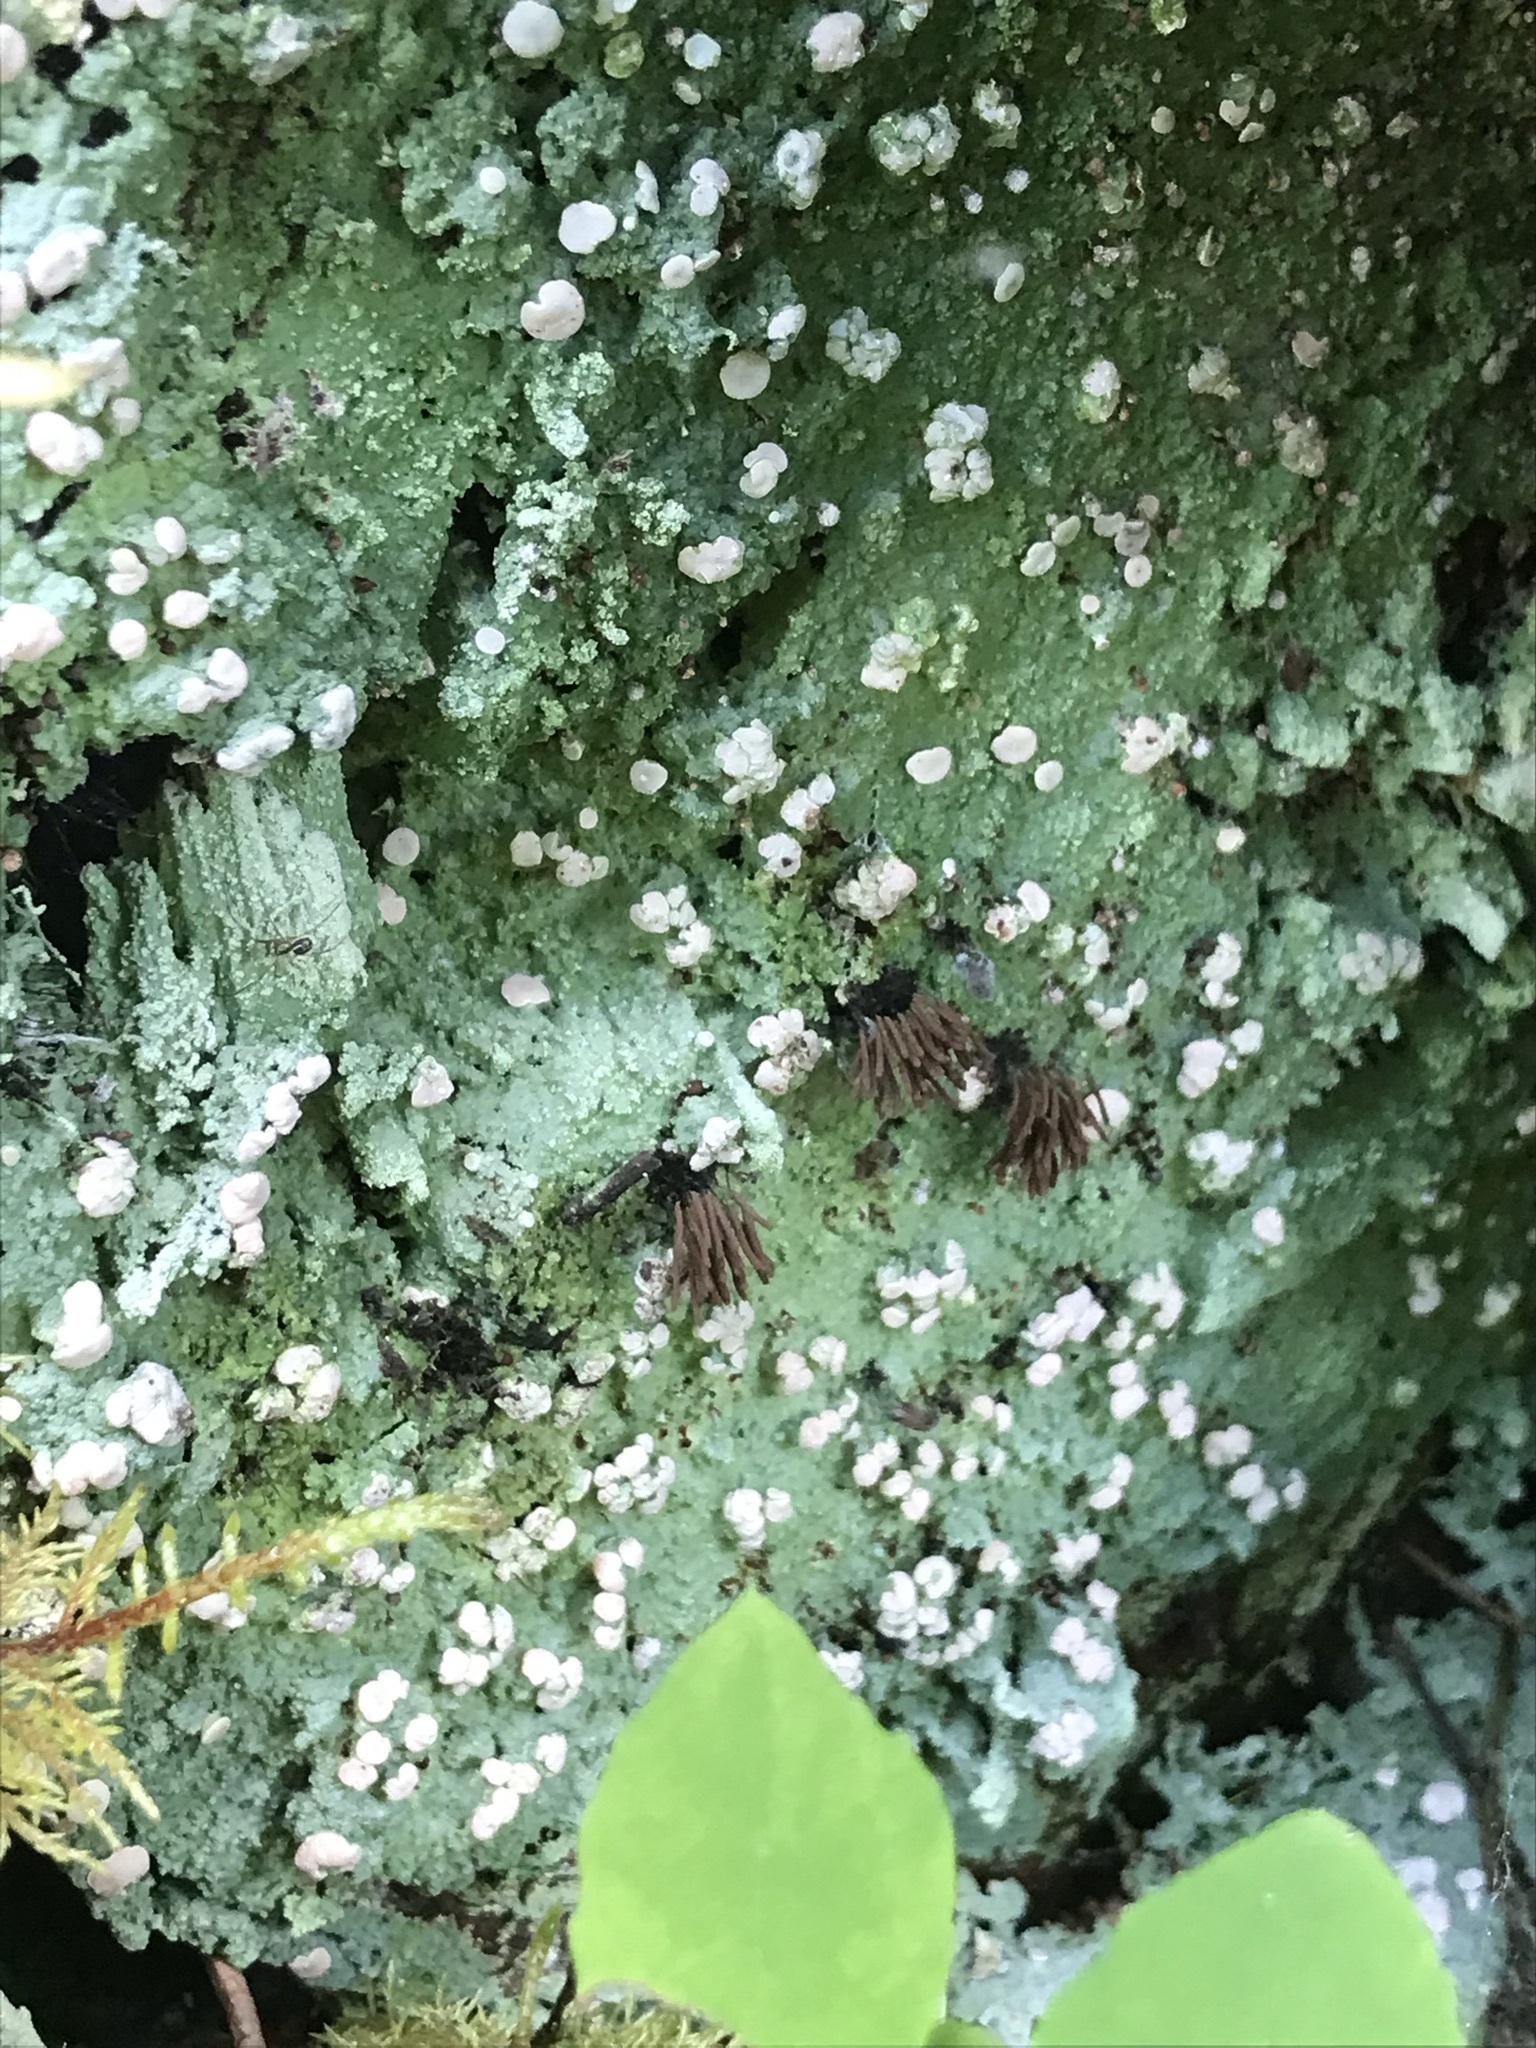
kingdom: Fungi
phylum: Ascomycota
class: Lecanoromycetes
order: Pertusariales
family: Icmadophilaceae
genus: Icmadophila
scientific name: Icmadophila ericetorum
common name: Candy lichen
